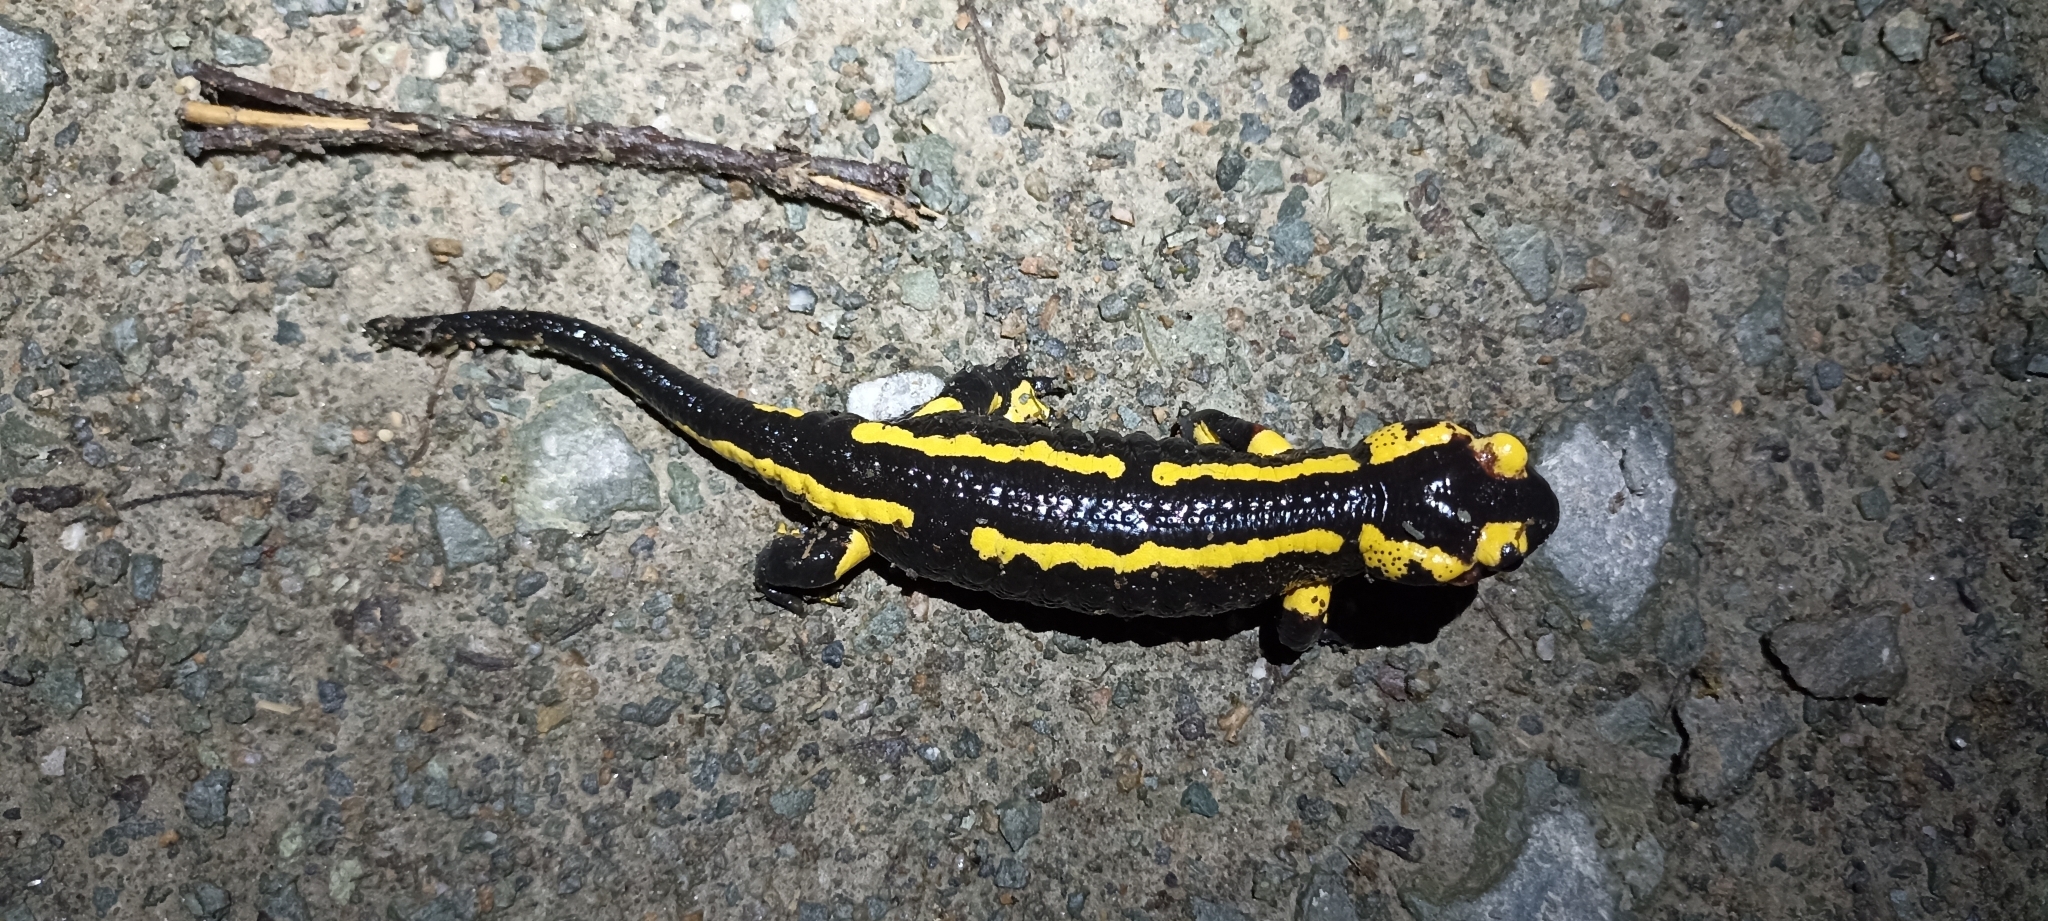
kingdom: Animalia
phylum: Chordata
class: Amphibia
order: Caudata
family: Salamandridae
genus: Salamandra
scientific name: Salamandra salamandra
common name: Fire salamander
